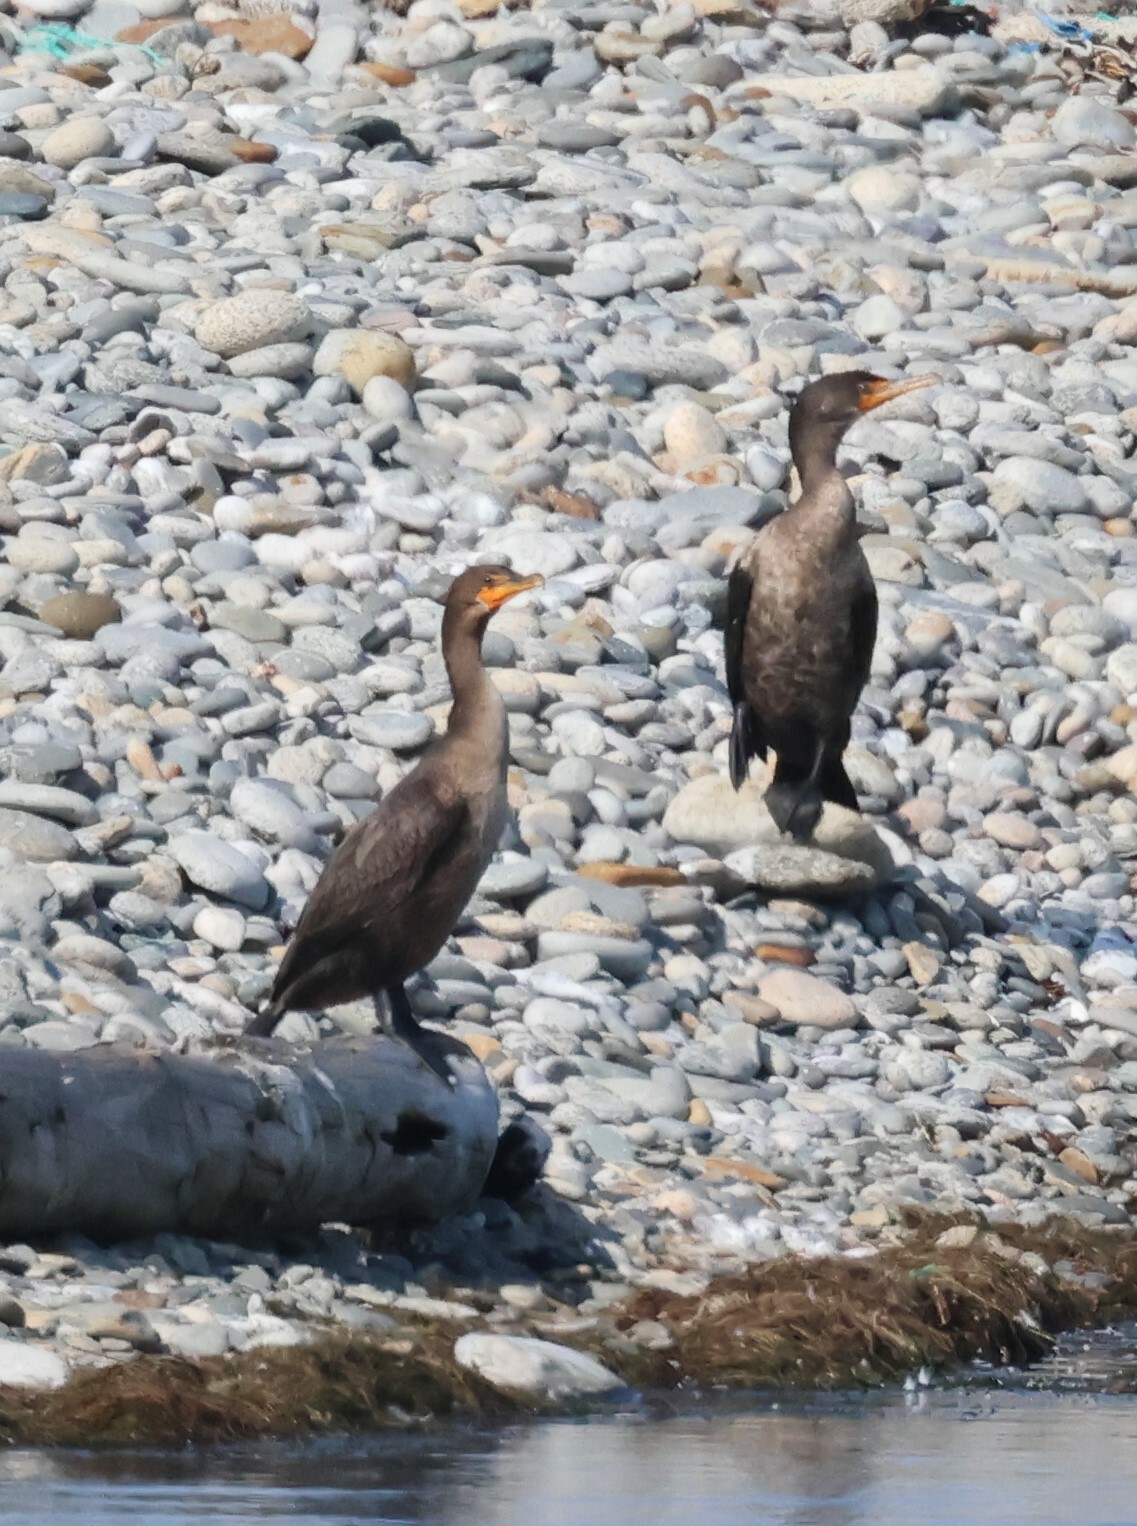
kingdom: Animalia
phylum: Chordata
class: Aves
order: Suliformes
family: Phalacrocoracidae
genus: Phalacrocorax
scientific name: Phalacrocorax auritus
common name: Double-crested cormorant
